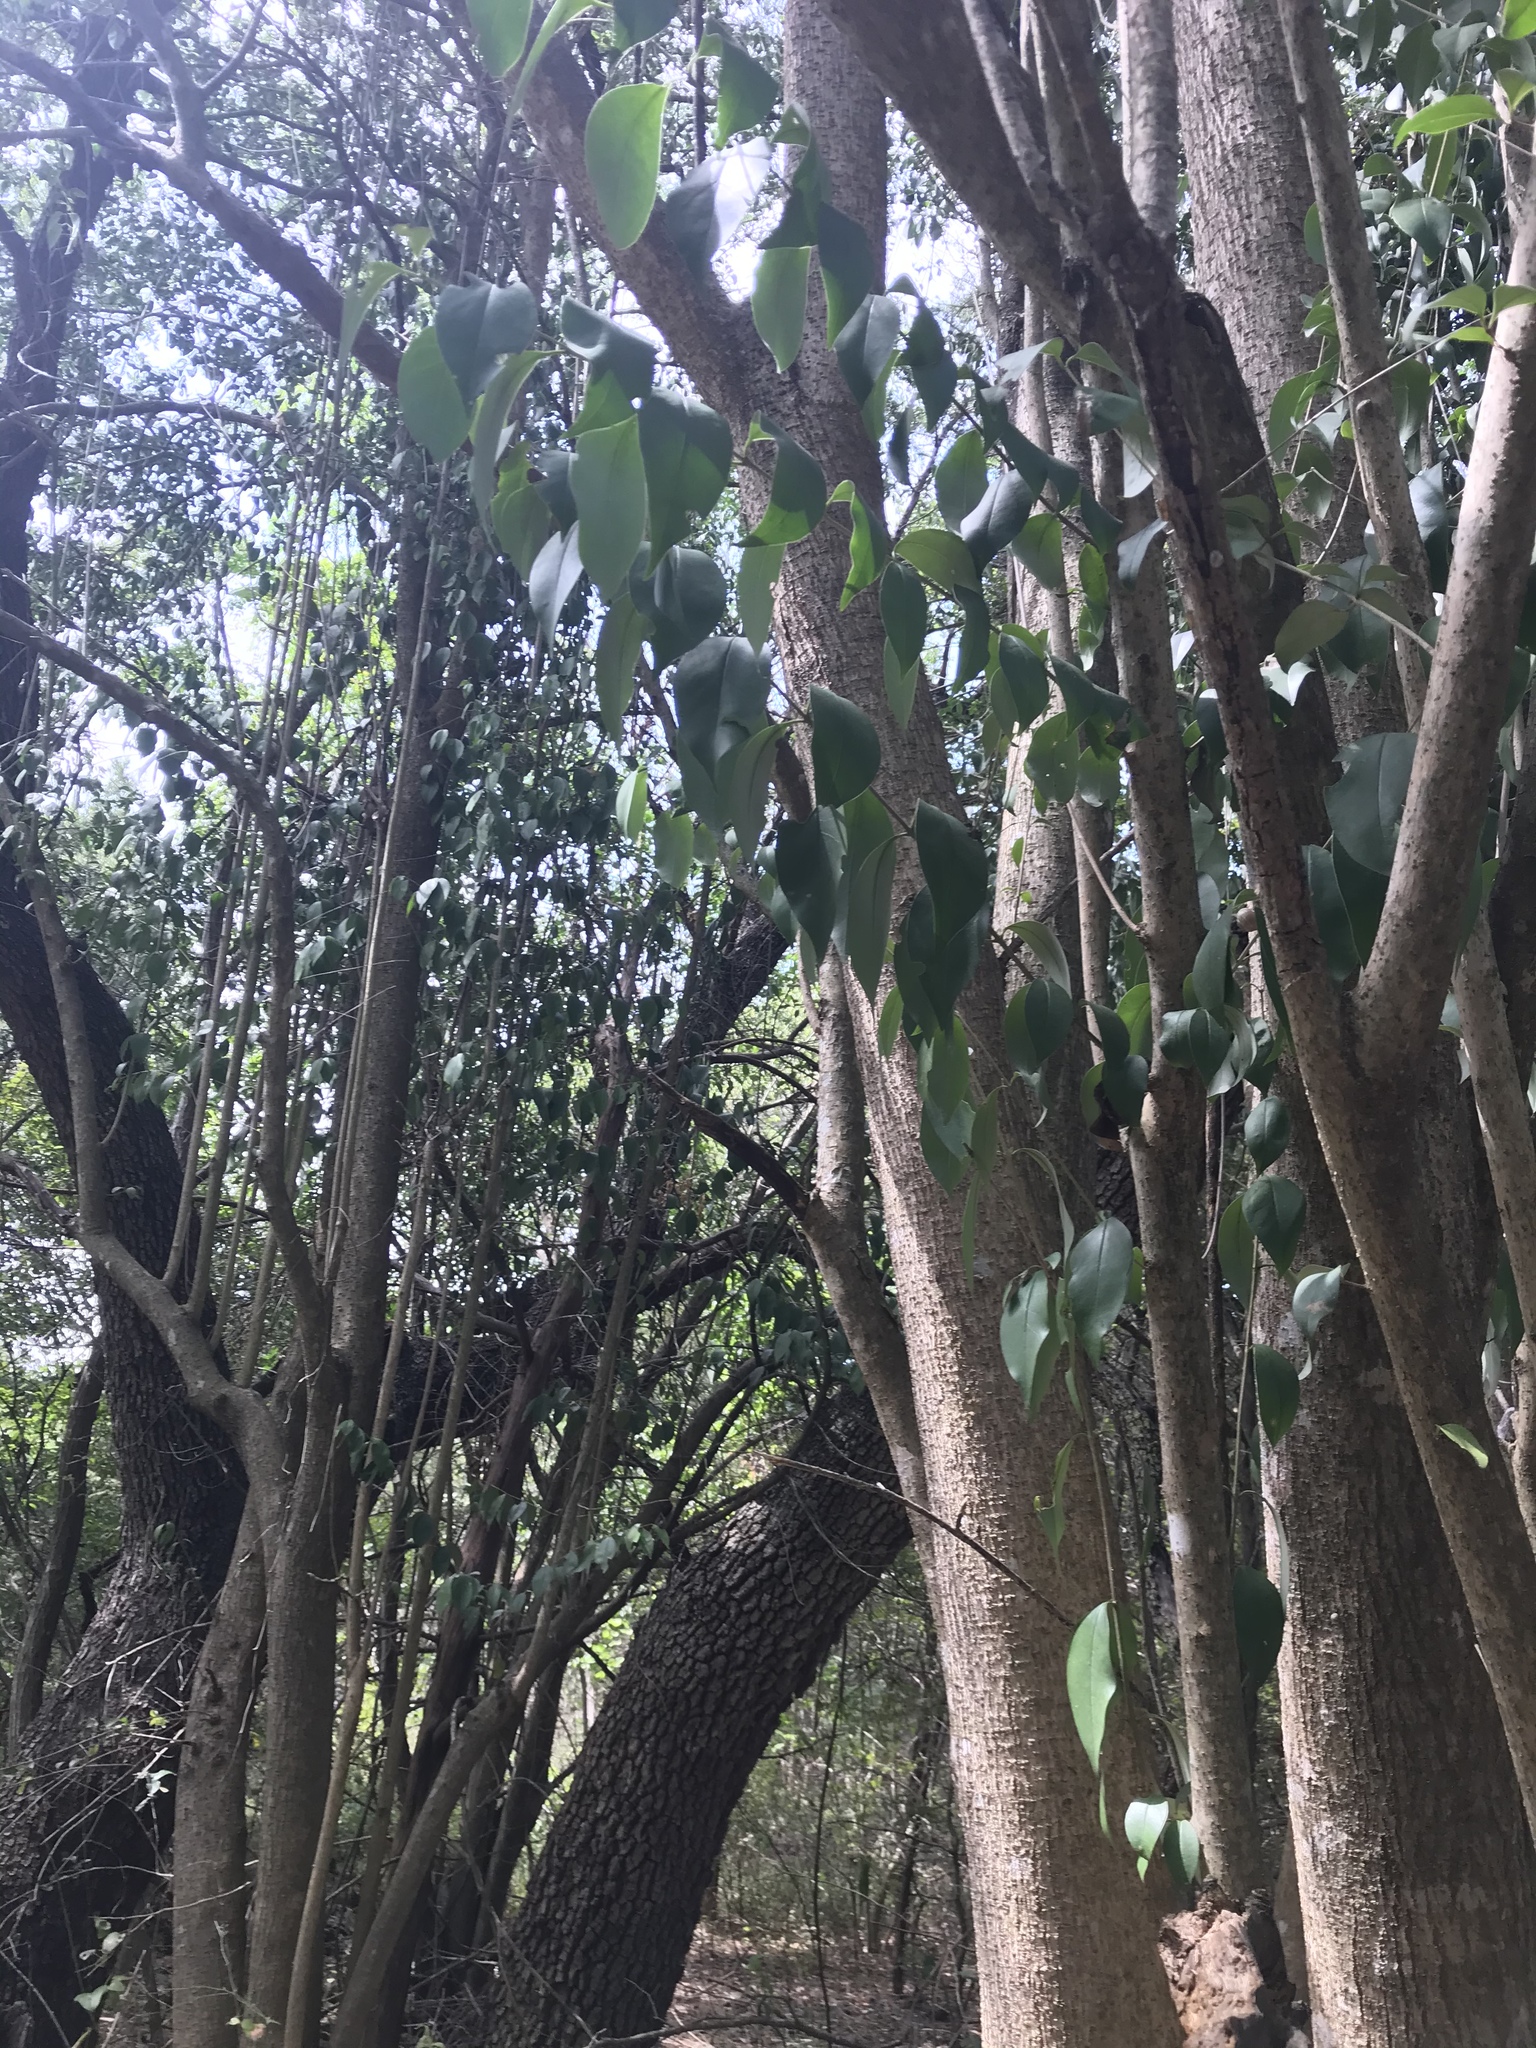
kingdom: Plantae
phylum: Tracheophyta
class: Magnoliopsida
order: Lamiales
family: Oleaceae
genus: Ligustrum
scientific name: Ligustrum lucidum
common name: Glossy privet
